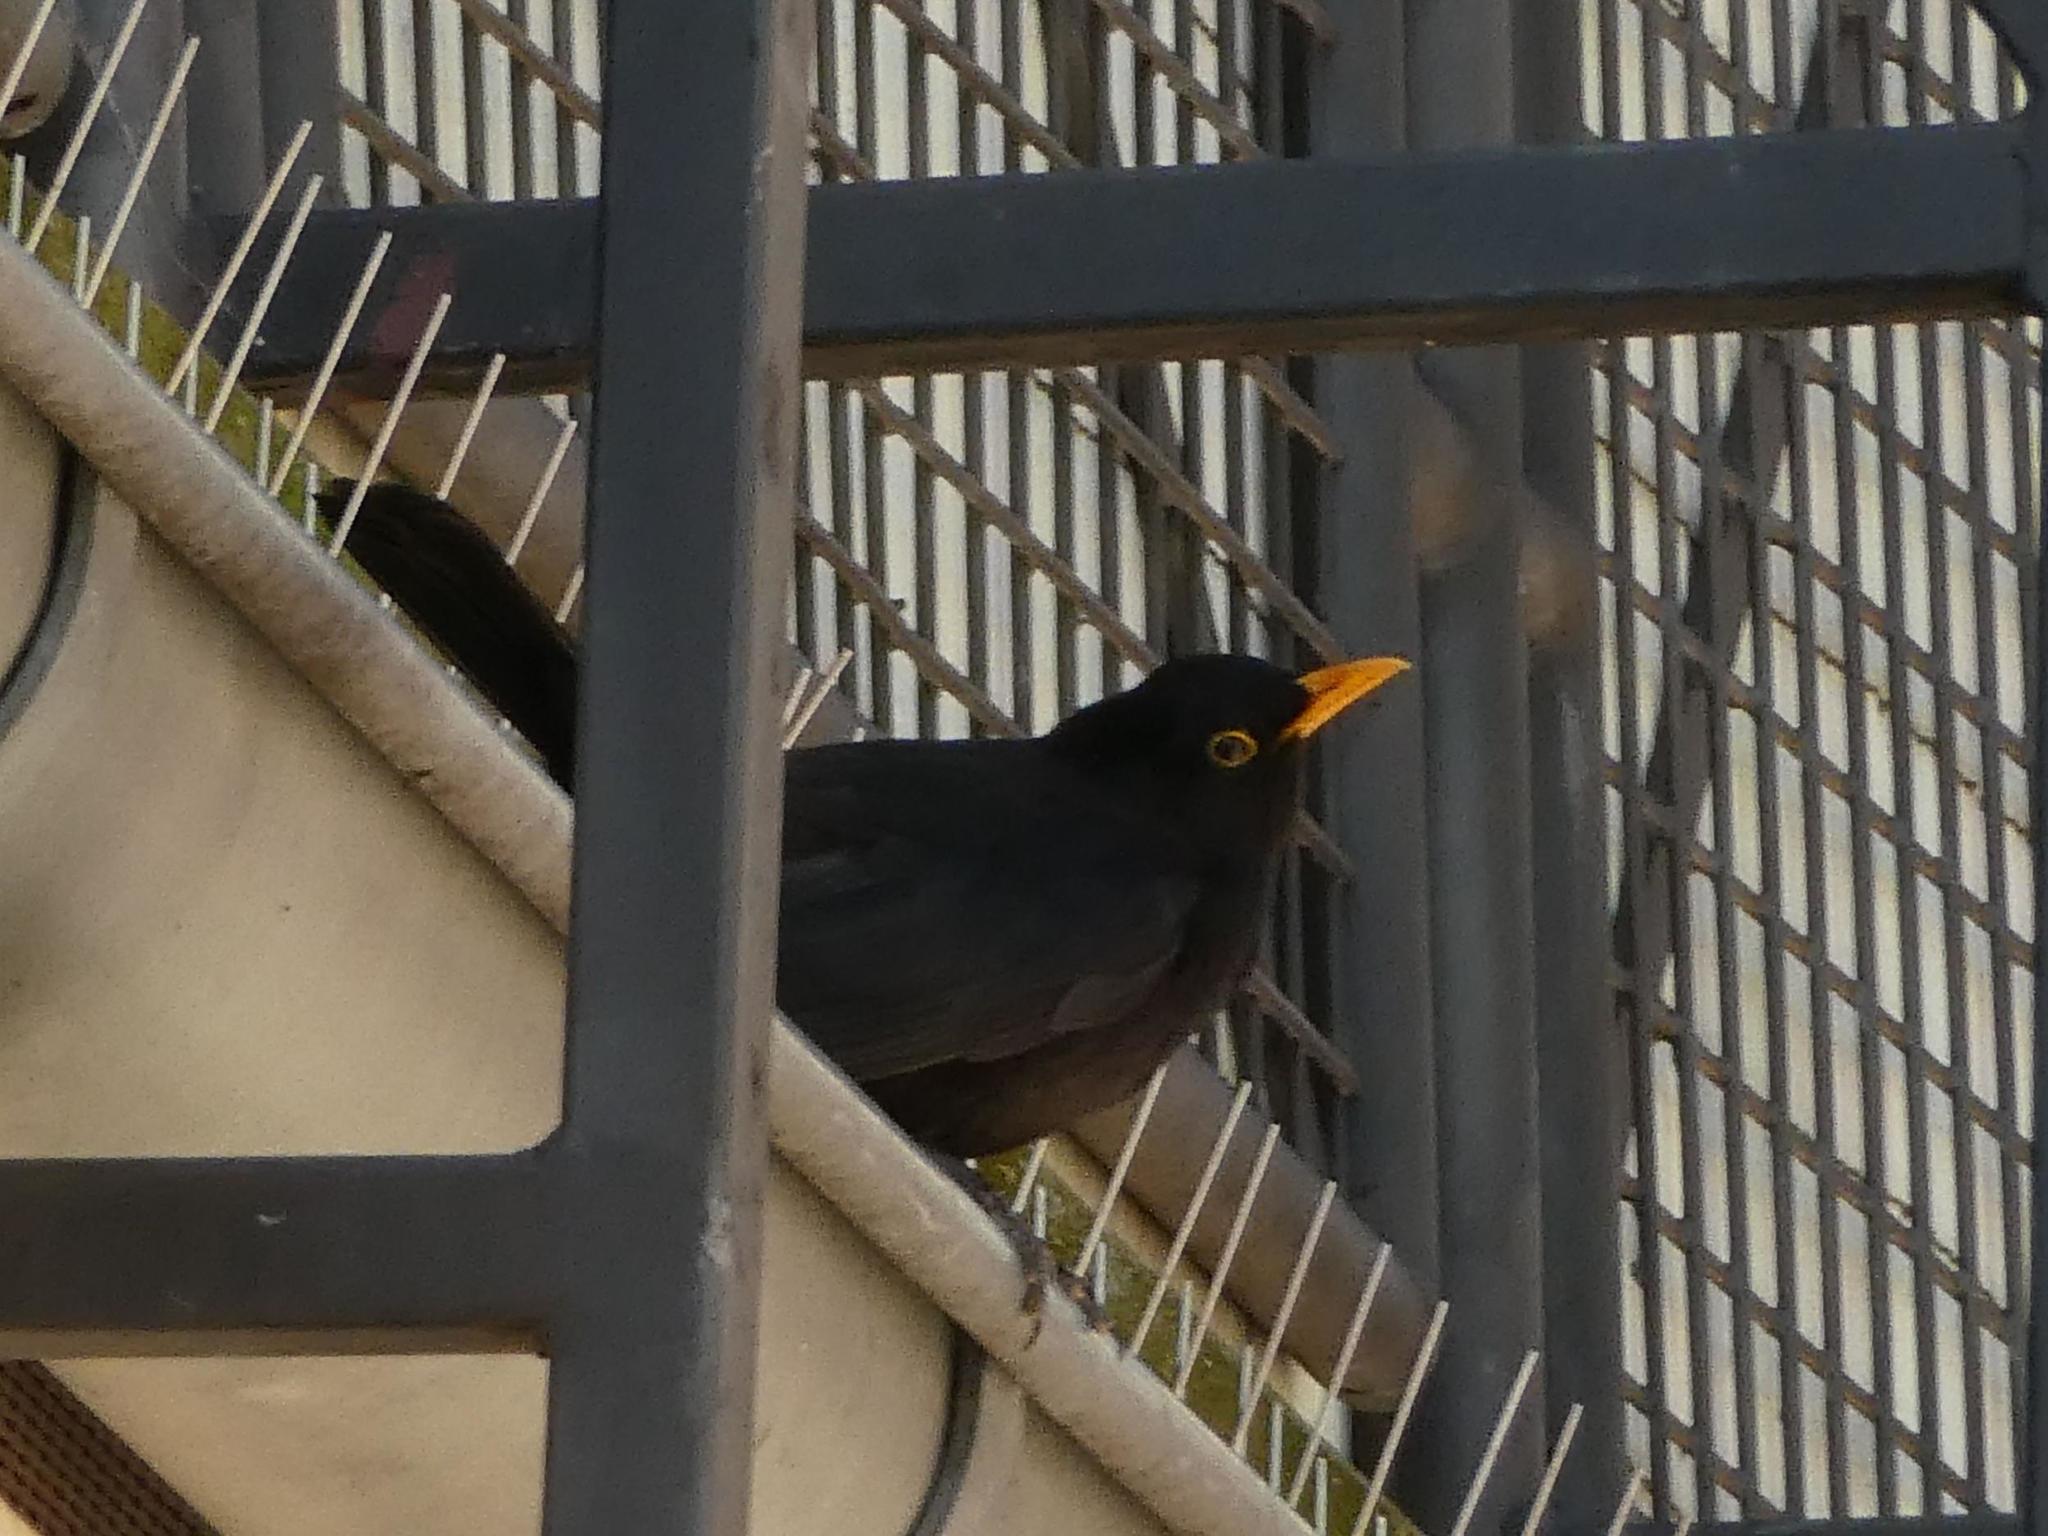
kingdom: Animalia
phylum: Chordata
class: Aves
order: Passeriformes
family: Turdidae
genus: Turdus
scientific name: Turdus merula
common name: Common blackbird
